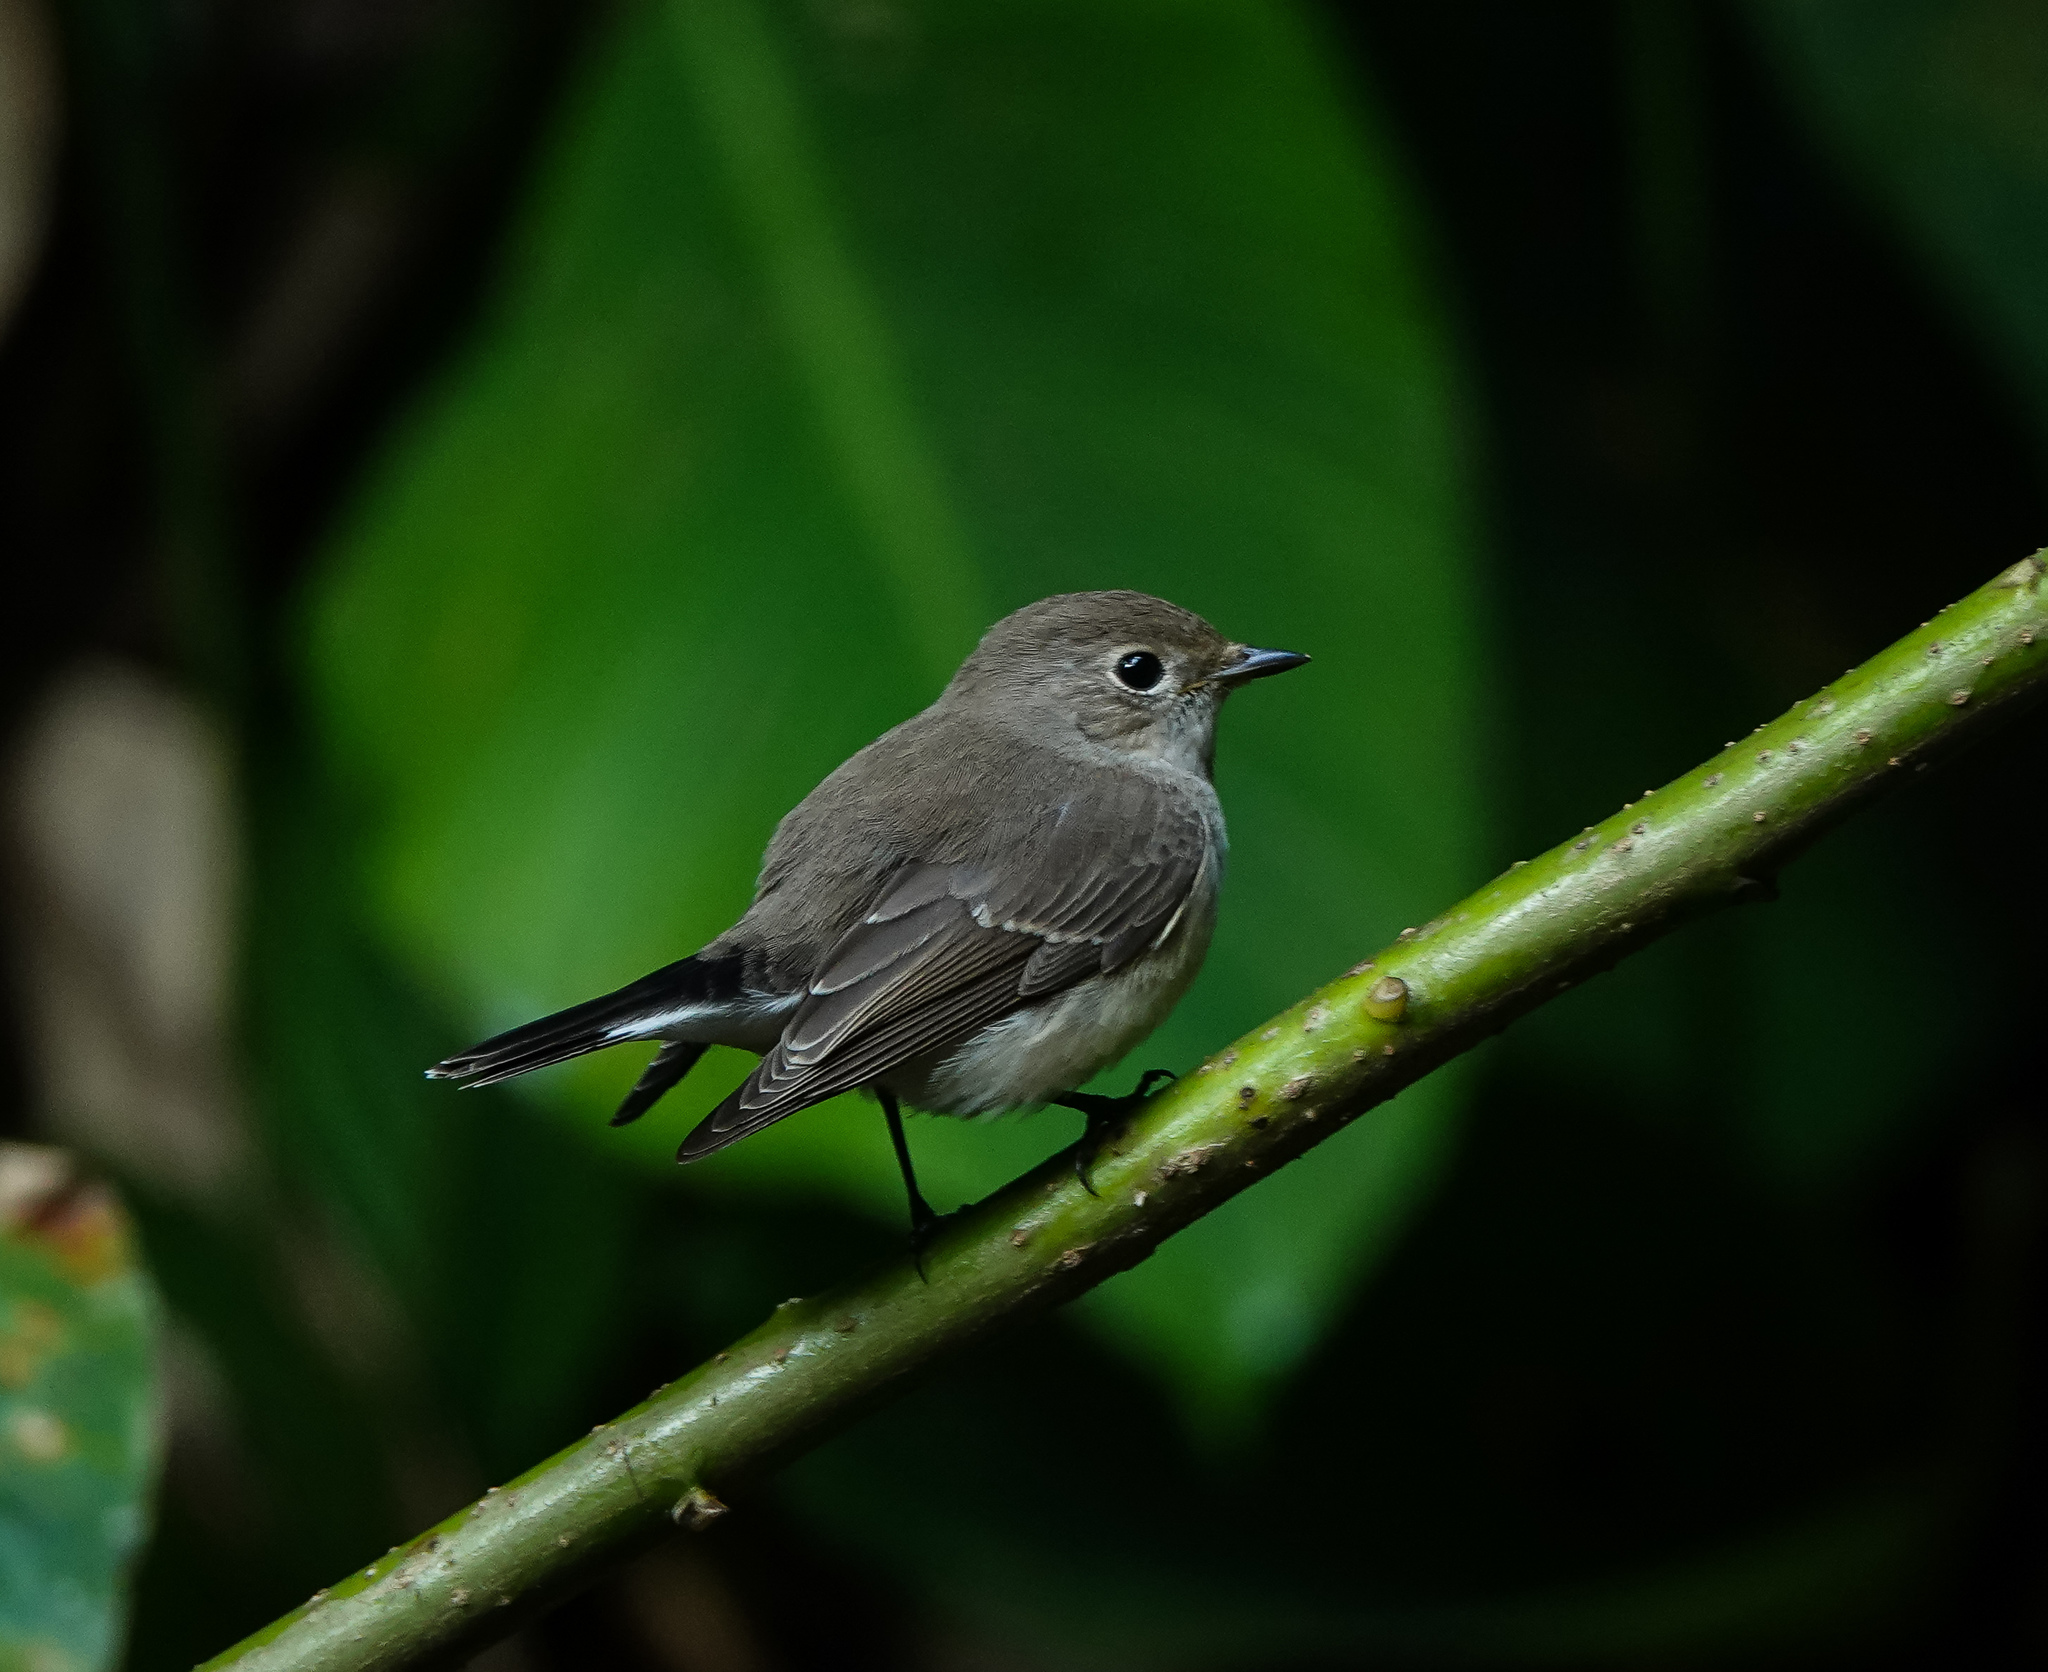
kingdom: Animalia
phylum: Chordata
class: Aves
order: Passeriformes
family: Muscicapidae
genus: Ficedula
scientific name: Ficedula albicilla
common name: Taiga flycatcher
